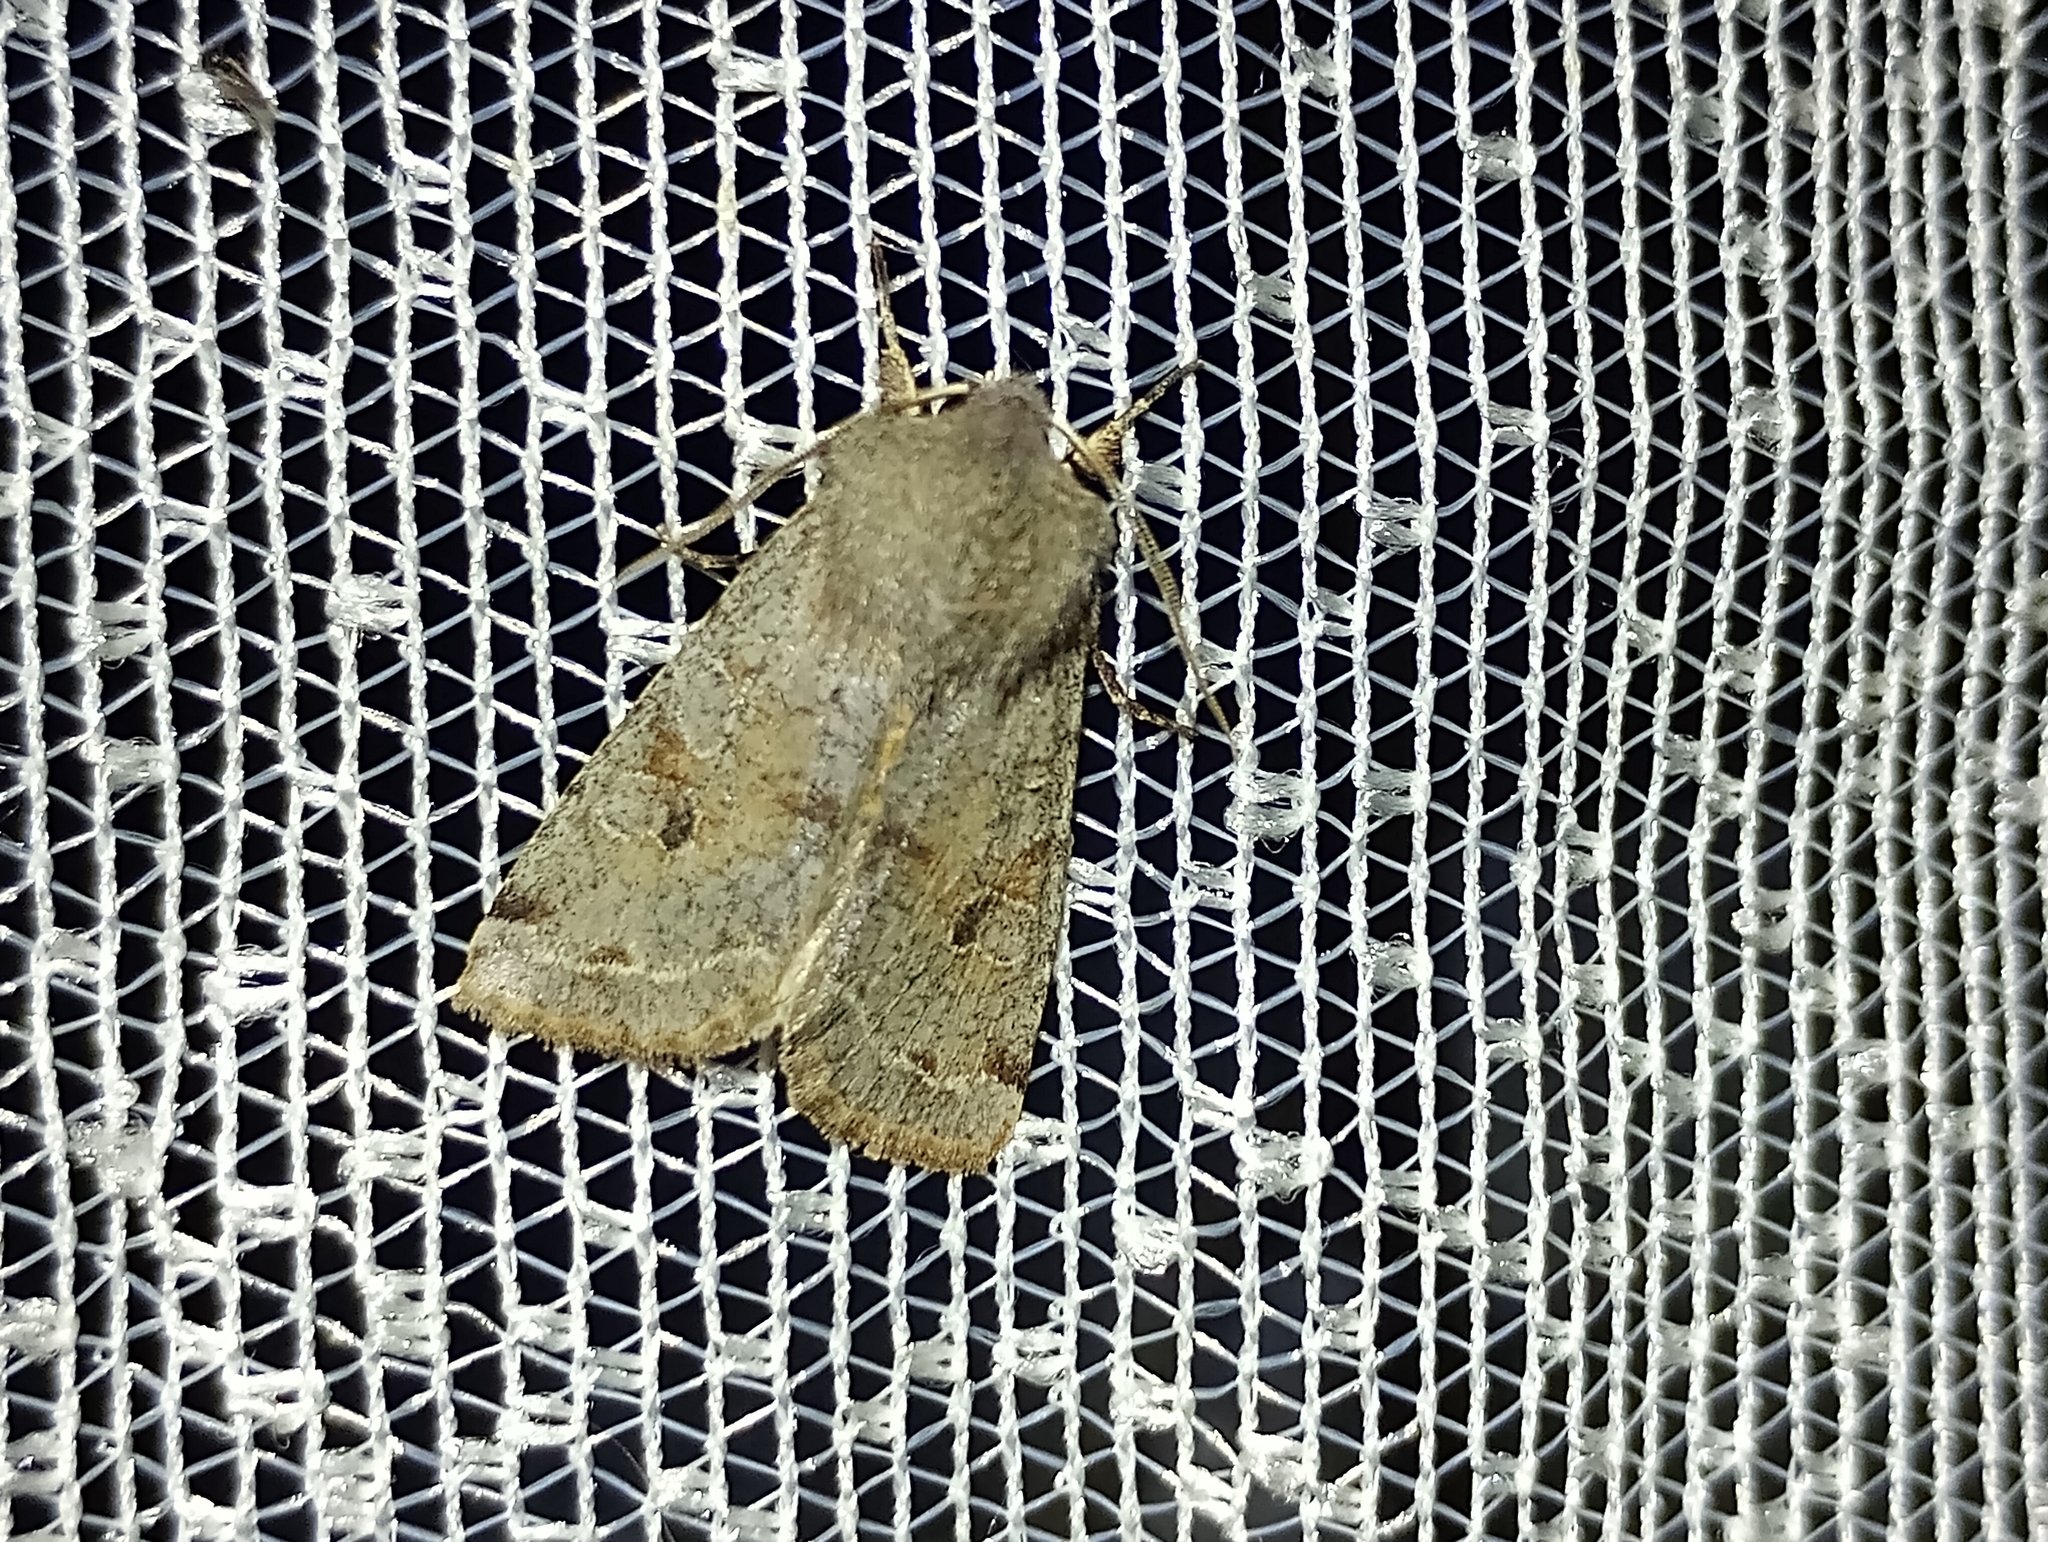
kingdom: Animalia
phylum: Arthropoda
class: Insecta
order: Lepidoptera
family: Noctuidae
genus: Orthosia
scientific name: Orthosia incerta
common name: Clouded drab
